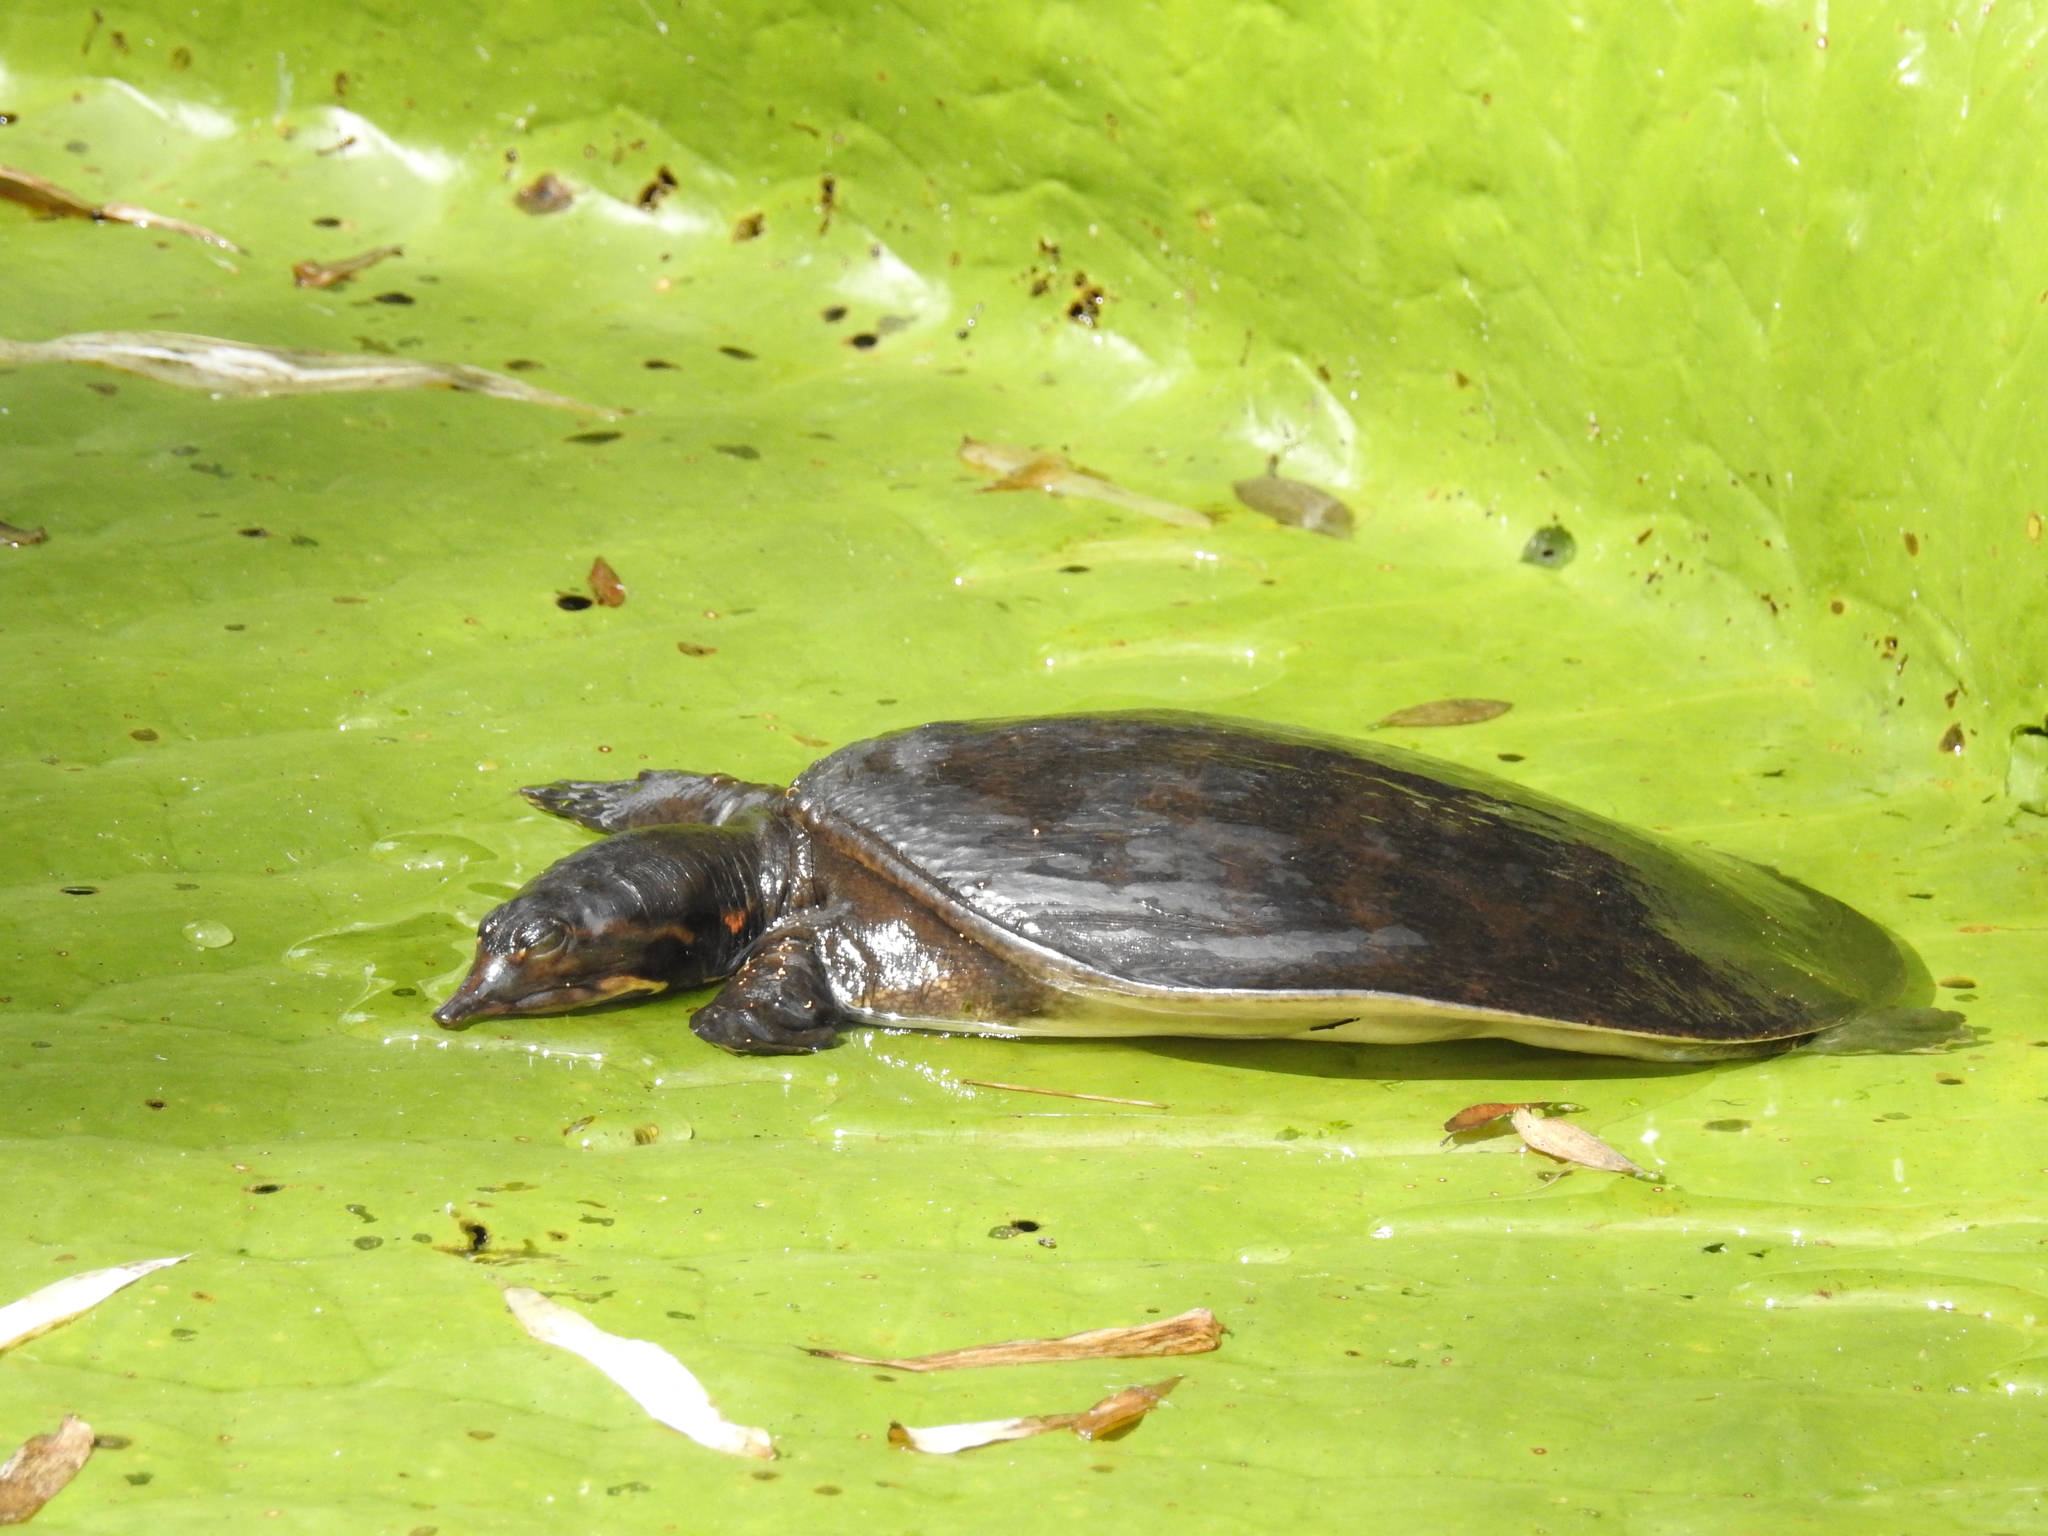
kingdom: Animalia
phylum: Chordata
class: Testudines
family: Trionychidae
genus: Apalone
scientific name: Apalone ferox
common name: Florida softshell turtle
